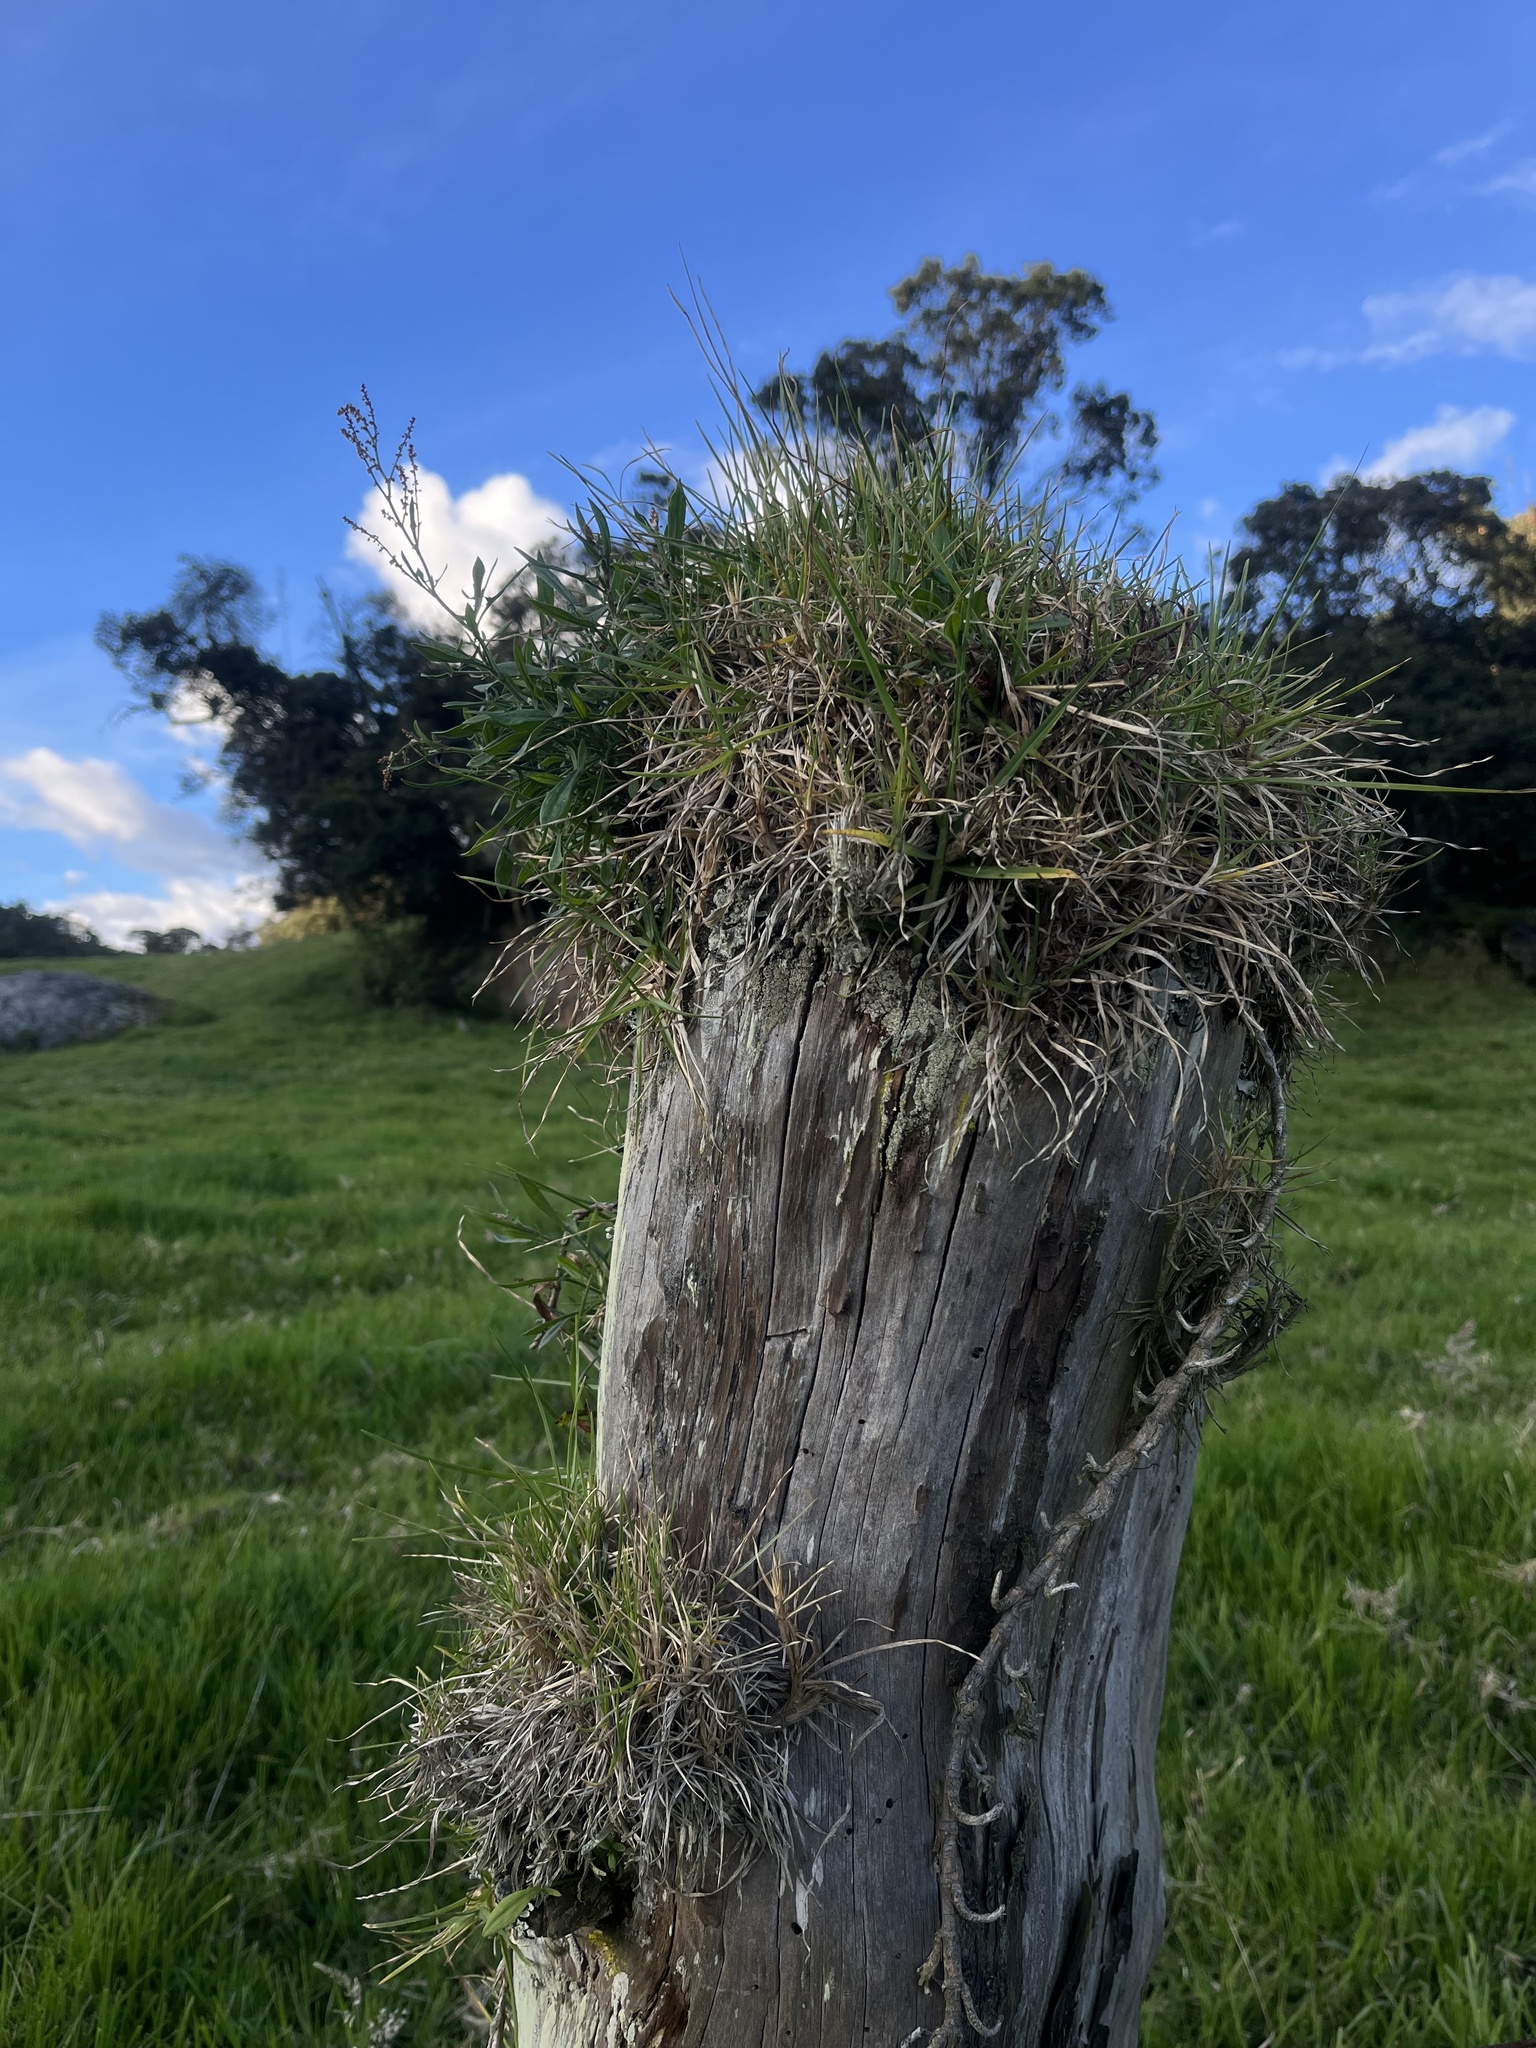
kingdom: Plantae
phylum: Tracheophyta
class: Liliopsida
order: Poales
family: Poaceae
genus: Cenchrus
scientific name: Cenchrus clandestinus
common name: Kikuyugrass
